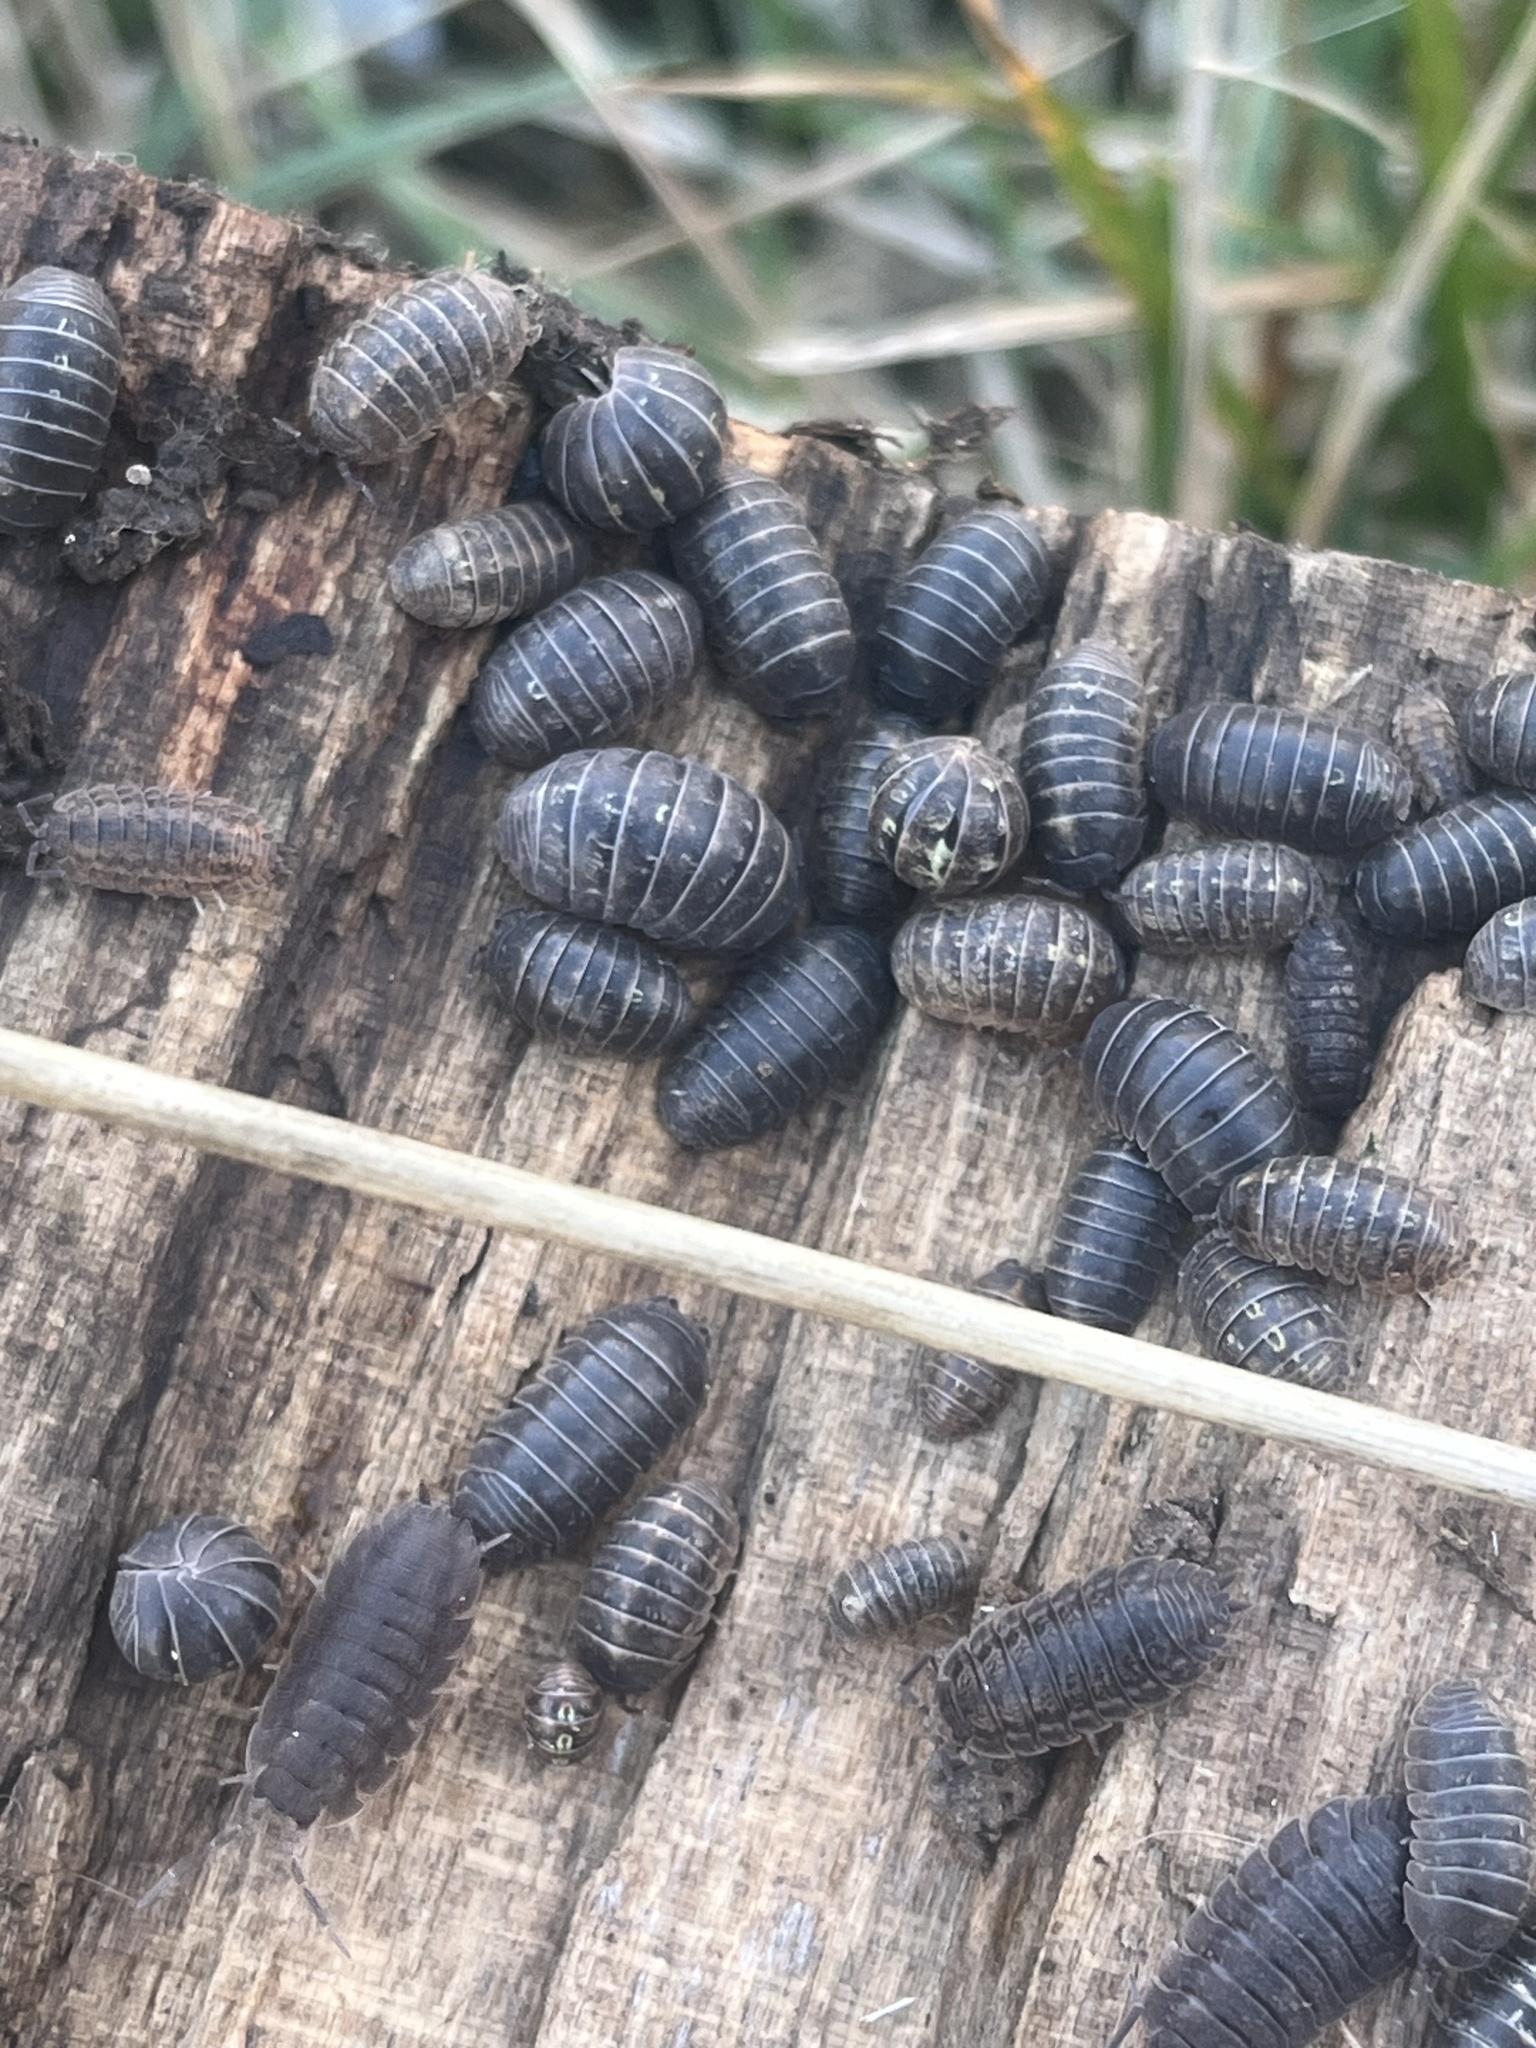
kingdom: Animalia
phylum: Arthropoda
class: Malacostraca
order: Isopoda
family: Armadillidiidae
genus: Armadillidium
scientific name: Armadillidium vulgare
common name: Common pill woodlouse
